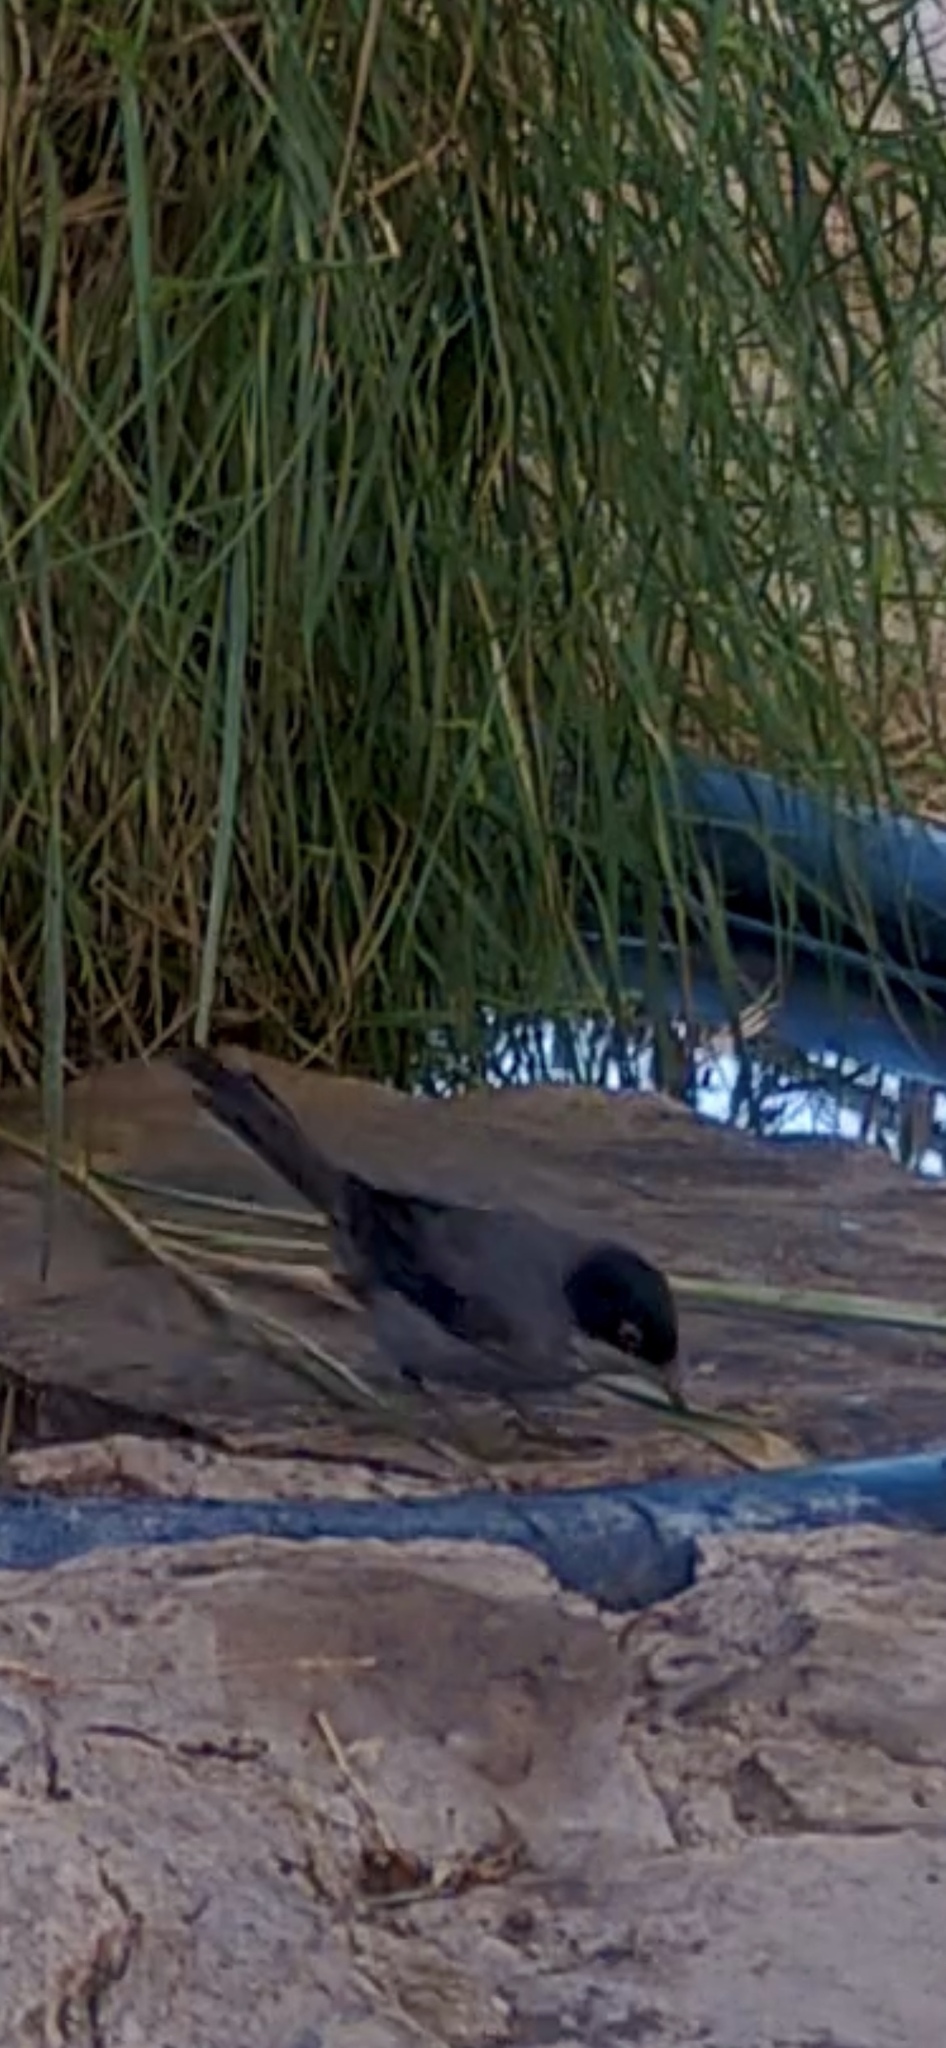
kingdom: Animalia
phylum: Chordata
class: Aves
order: Passeriformes
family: Sylviidae
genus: Curruca
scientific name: Curruca melanocephala
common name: Sardinian warbler
